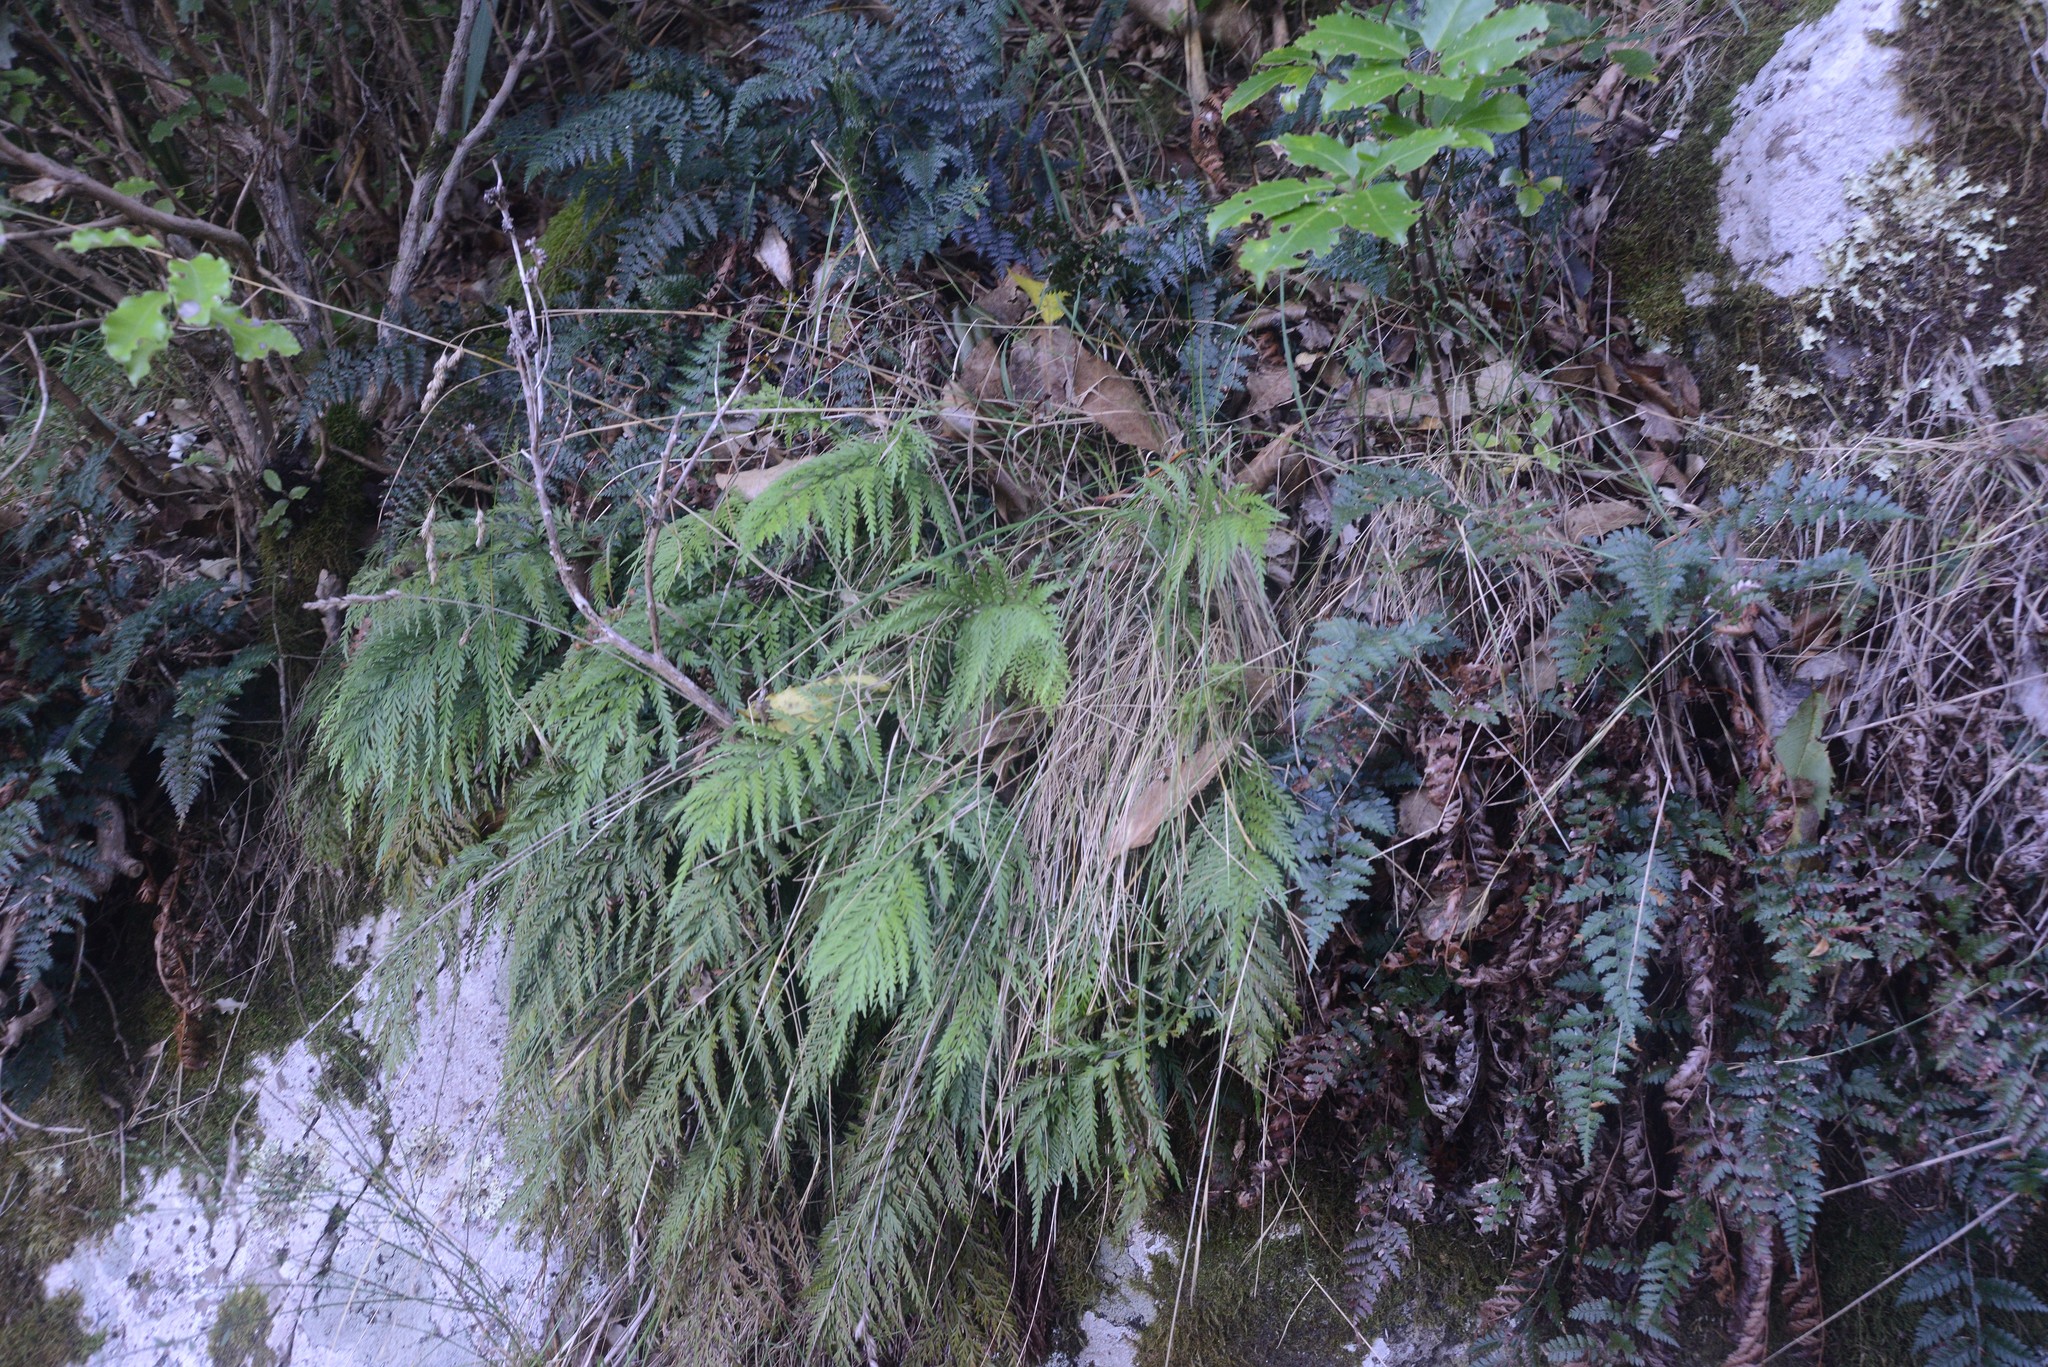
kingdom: Plantae
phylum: Tracheophyta
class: Polypodiopsida
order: Polypodiales
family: Aspleniaceae
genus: Asplenium
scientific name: Asplenium appendiculatum
